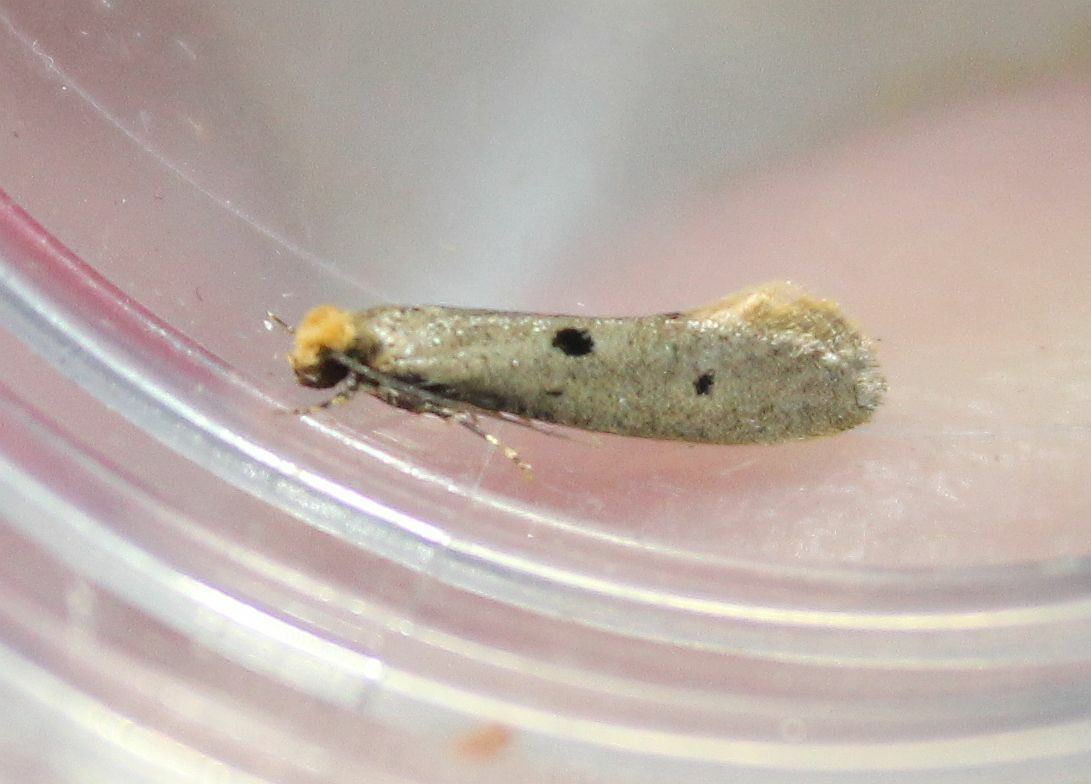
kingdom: Animalia
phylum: Arthropoda
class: Insecta
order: Lepidoptera
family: Tineidae
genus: Tinea
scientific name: Tinea trinotella
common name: Bird's-nest moth
